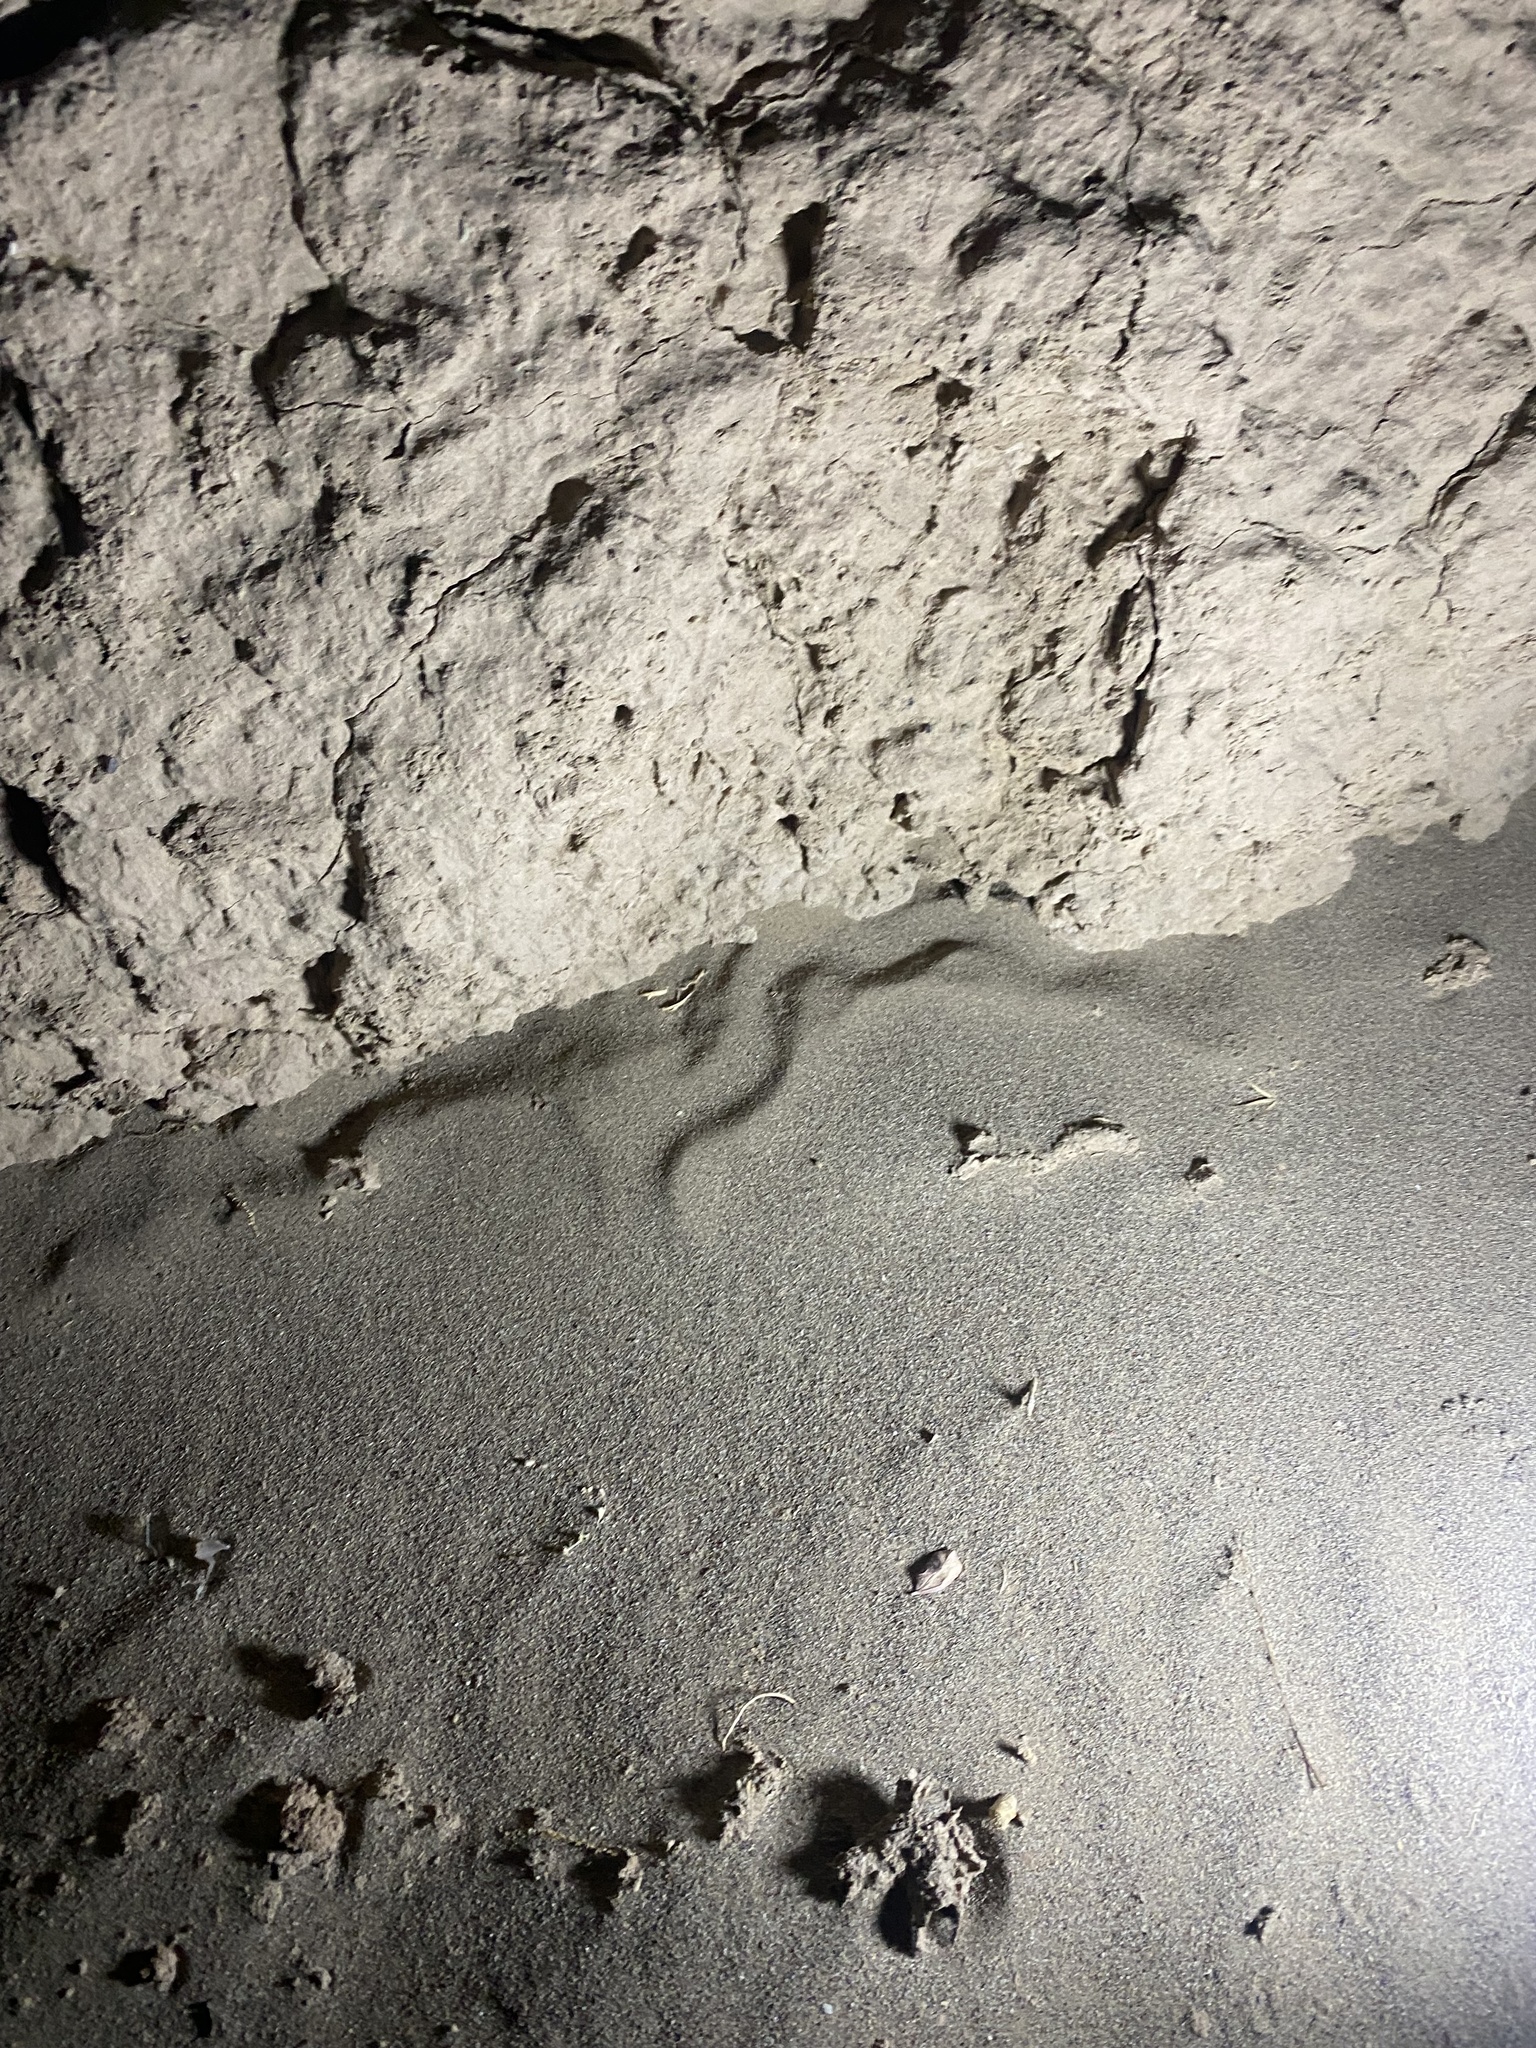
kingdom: Animalia
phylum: Chordata
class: Squamata
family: Scincidae
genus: Ophiomorus
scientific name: Ophiomorus nuchalis
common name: Plateau snake skink
